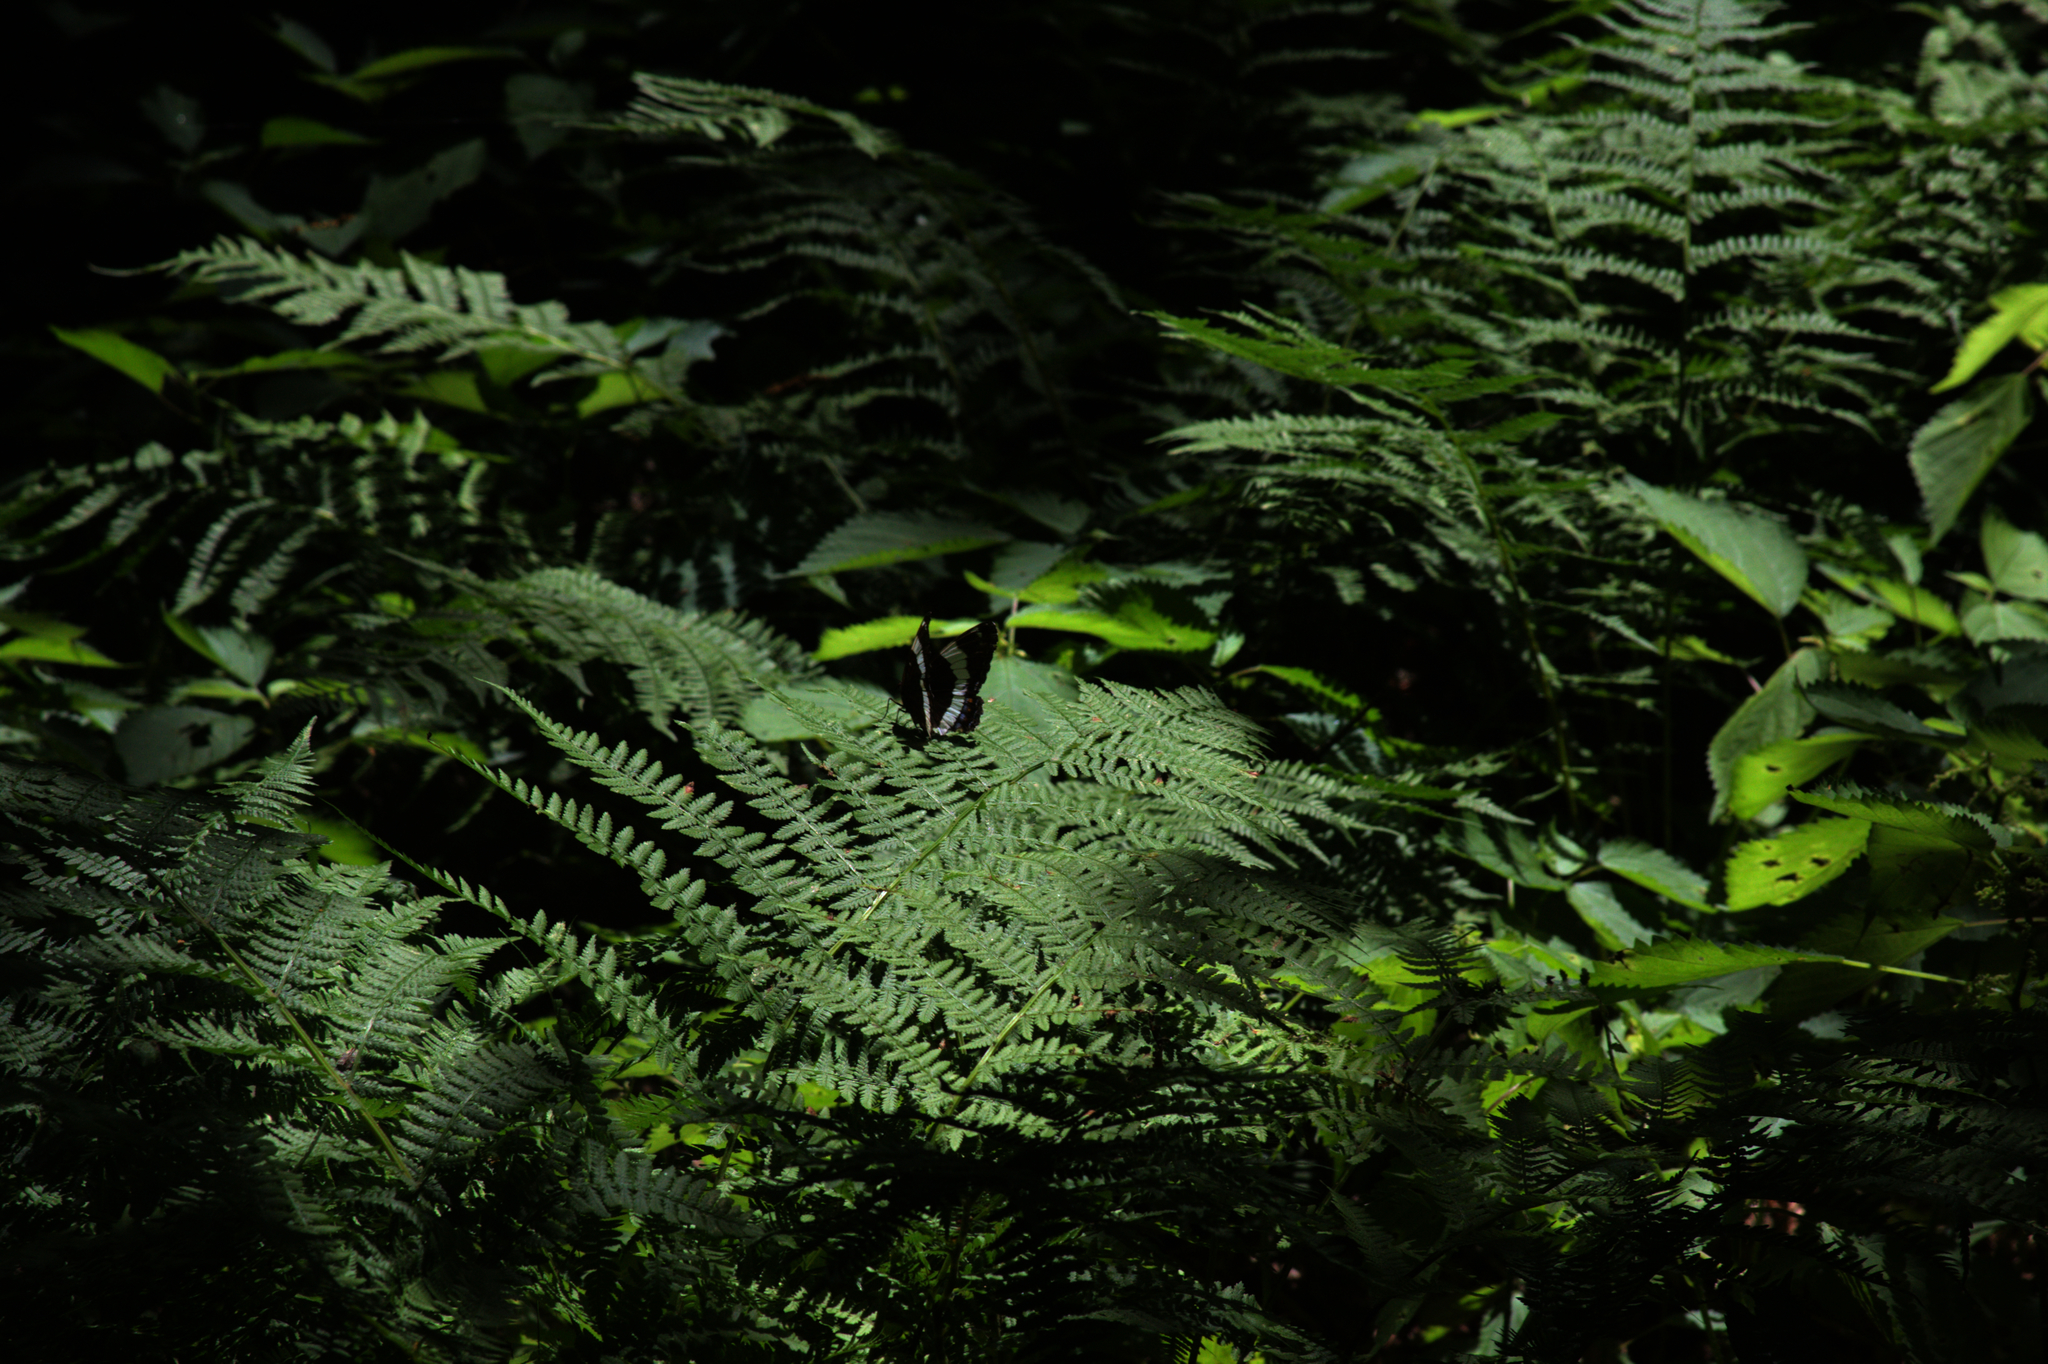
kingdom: Animalia
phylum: Arthropoda
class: Insecta
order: Lepidoptera
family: Nymphalidae
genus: Limenitis
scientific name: Limenitis arthemis
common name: Red-spotted admiral
